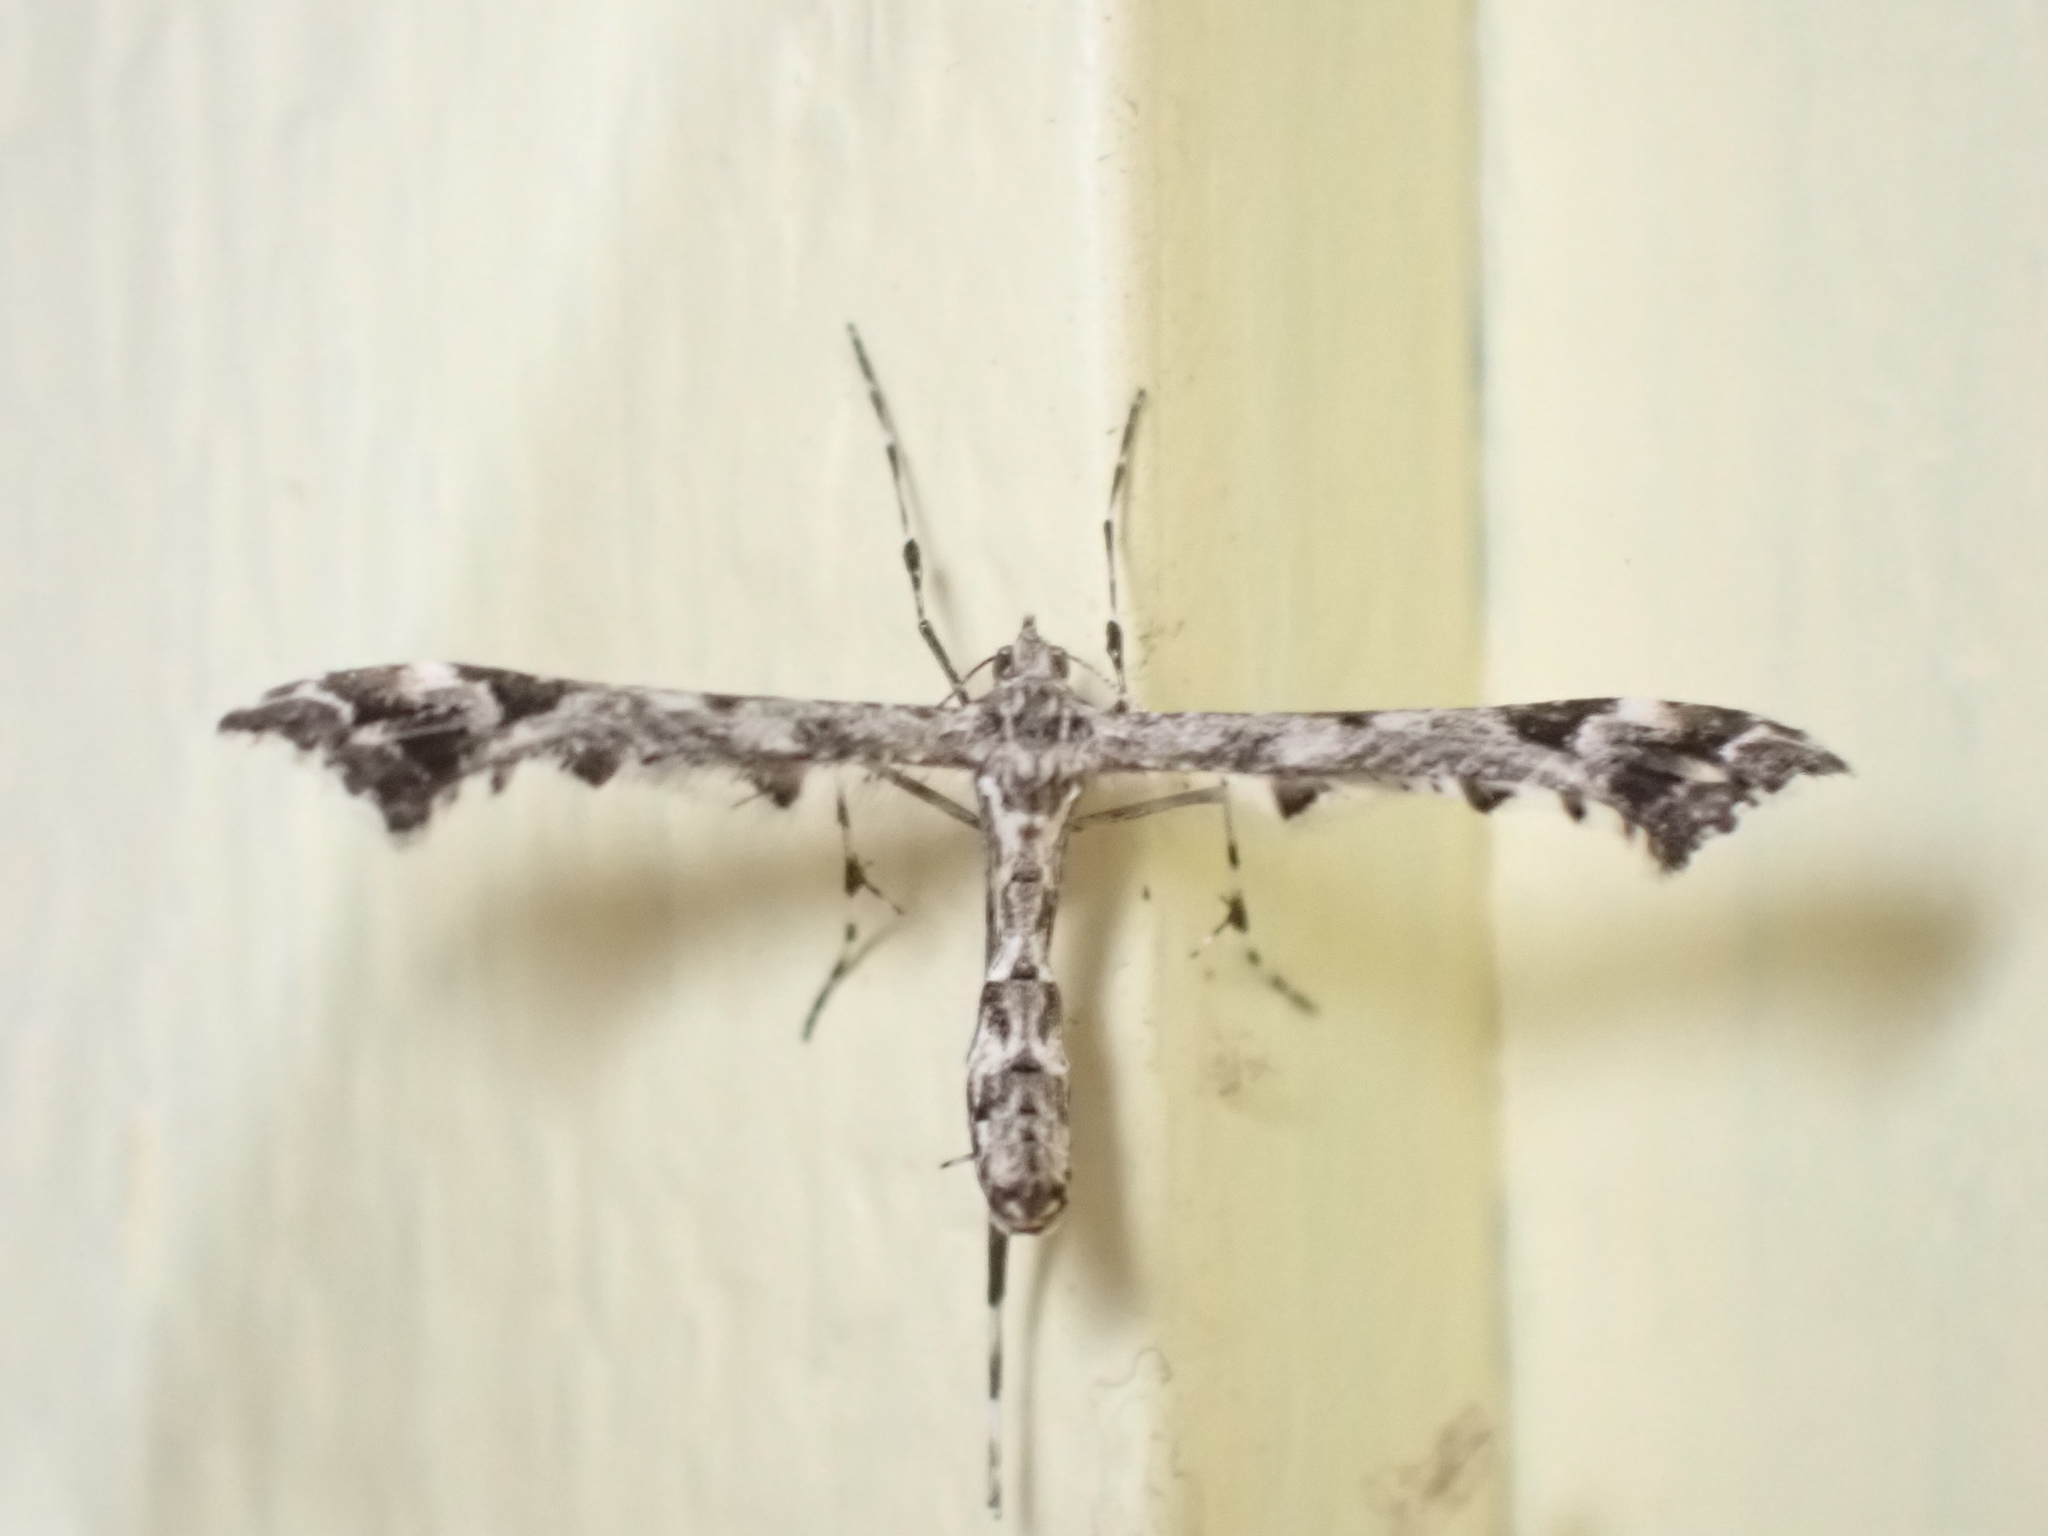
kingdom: Animalia
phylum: Arthropoda
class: Insecta
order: Lepidoptera
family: Pterophoridae
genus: Amblyptilia
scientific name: Amblyptilia pica
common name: Geranium plume moth
